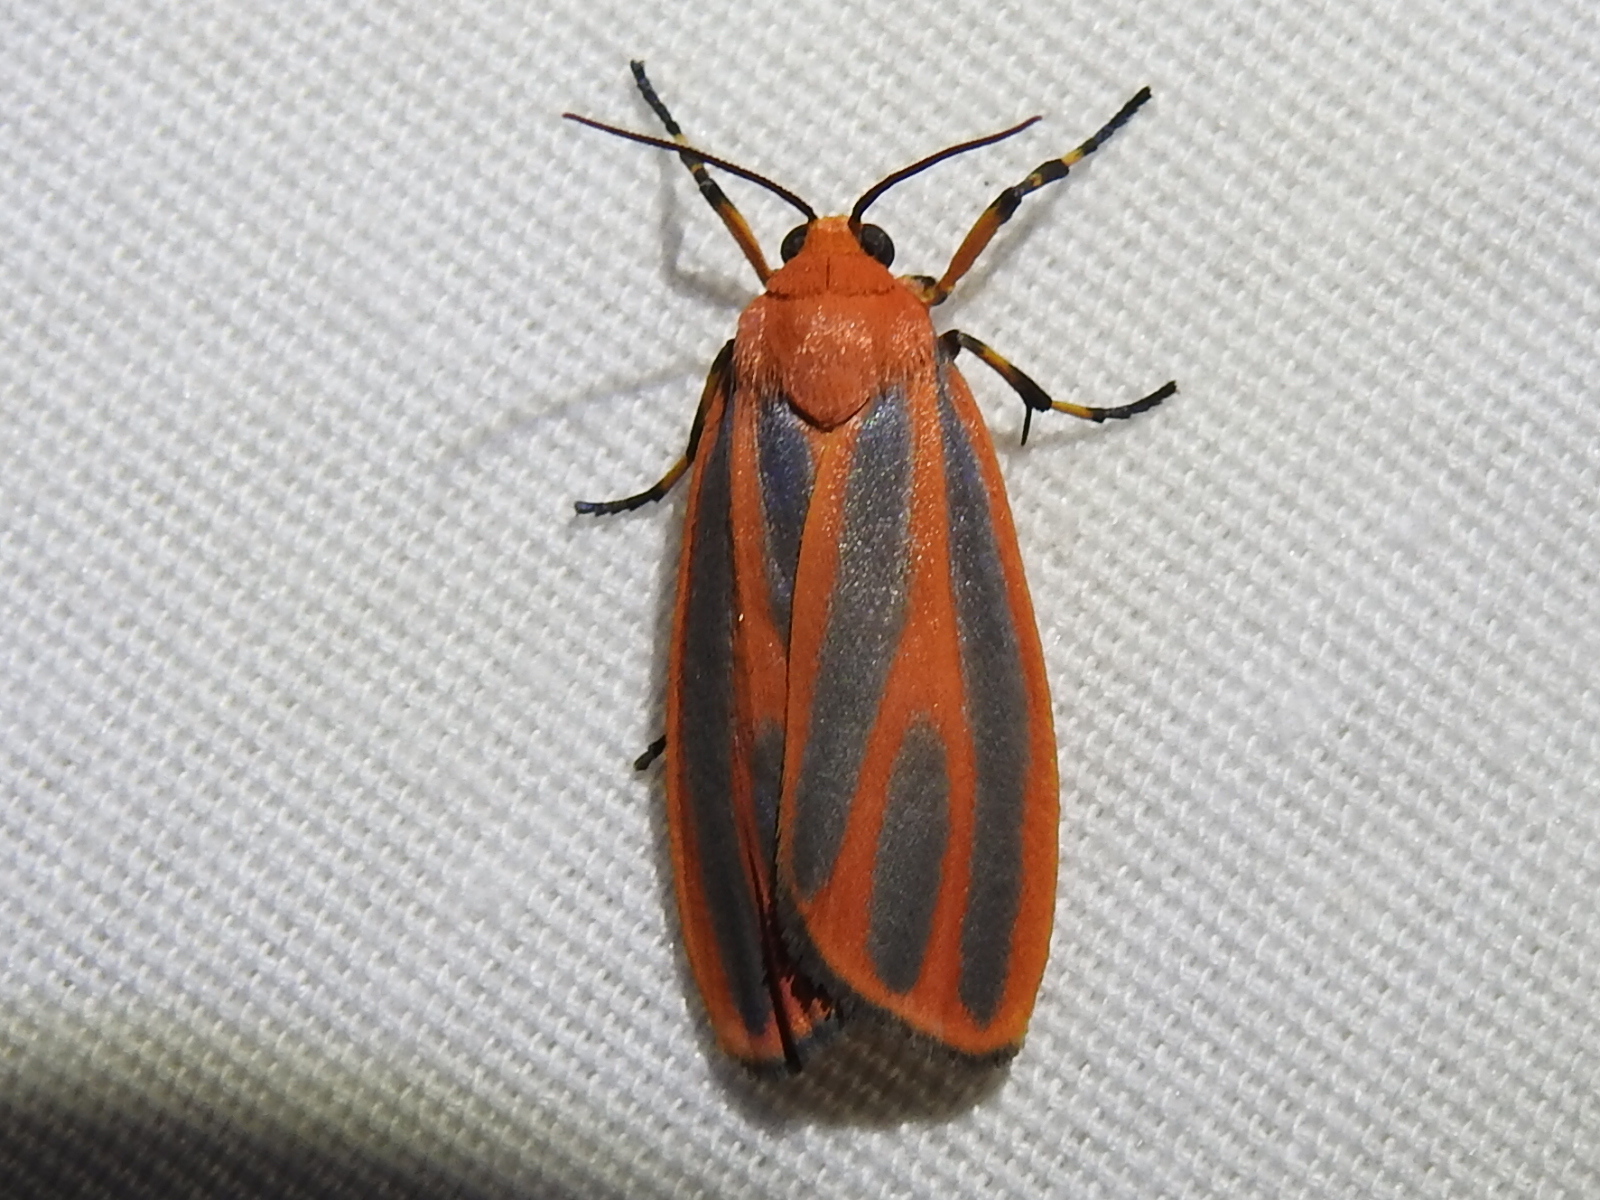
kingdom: Animalia
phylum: Arthropoda
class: Insecta
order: Lepidoptera
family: Erebidae
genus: Hypoprepia
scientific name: Hypoprepia miniata
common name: Scarlet-winged lichen moth
